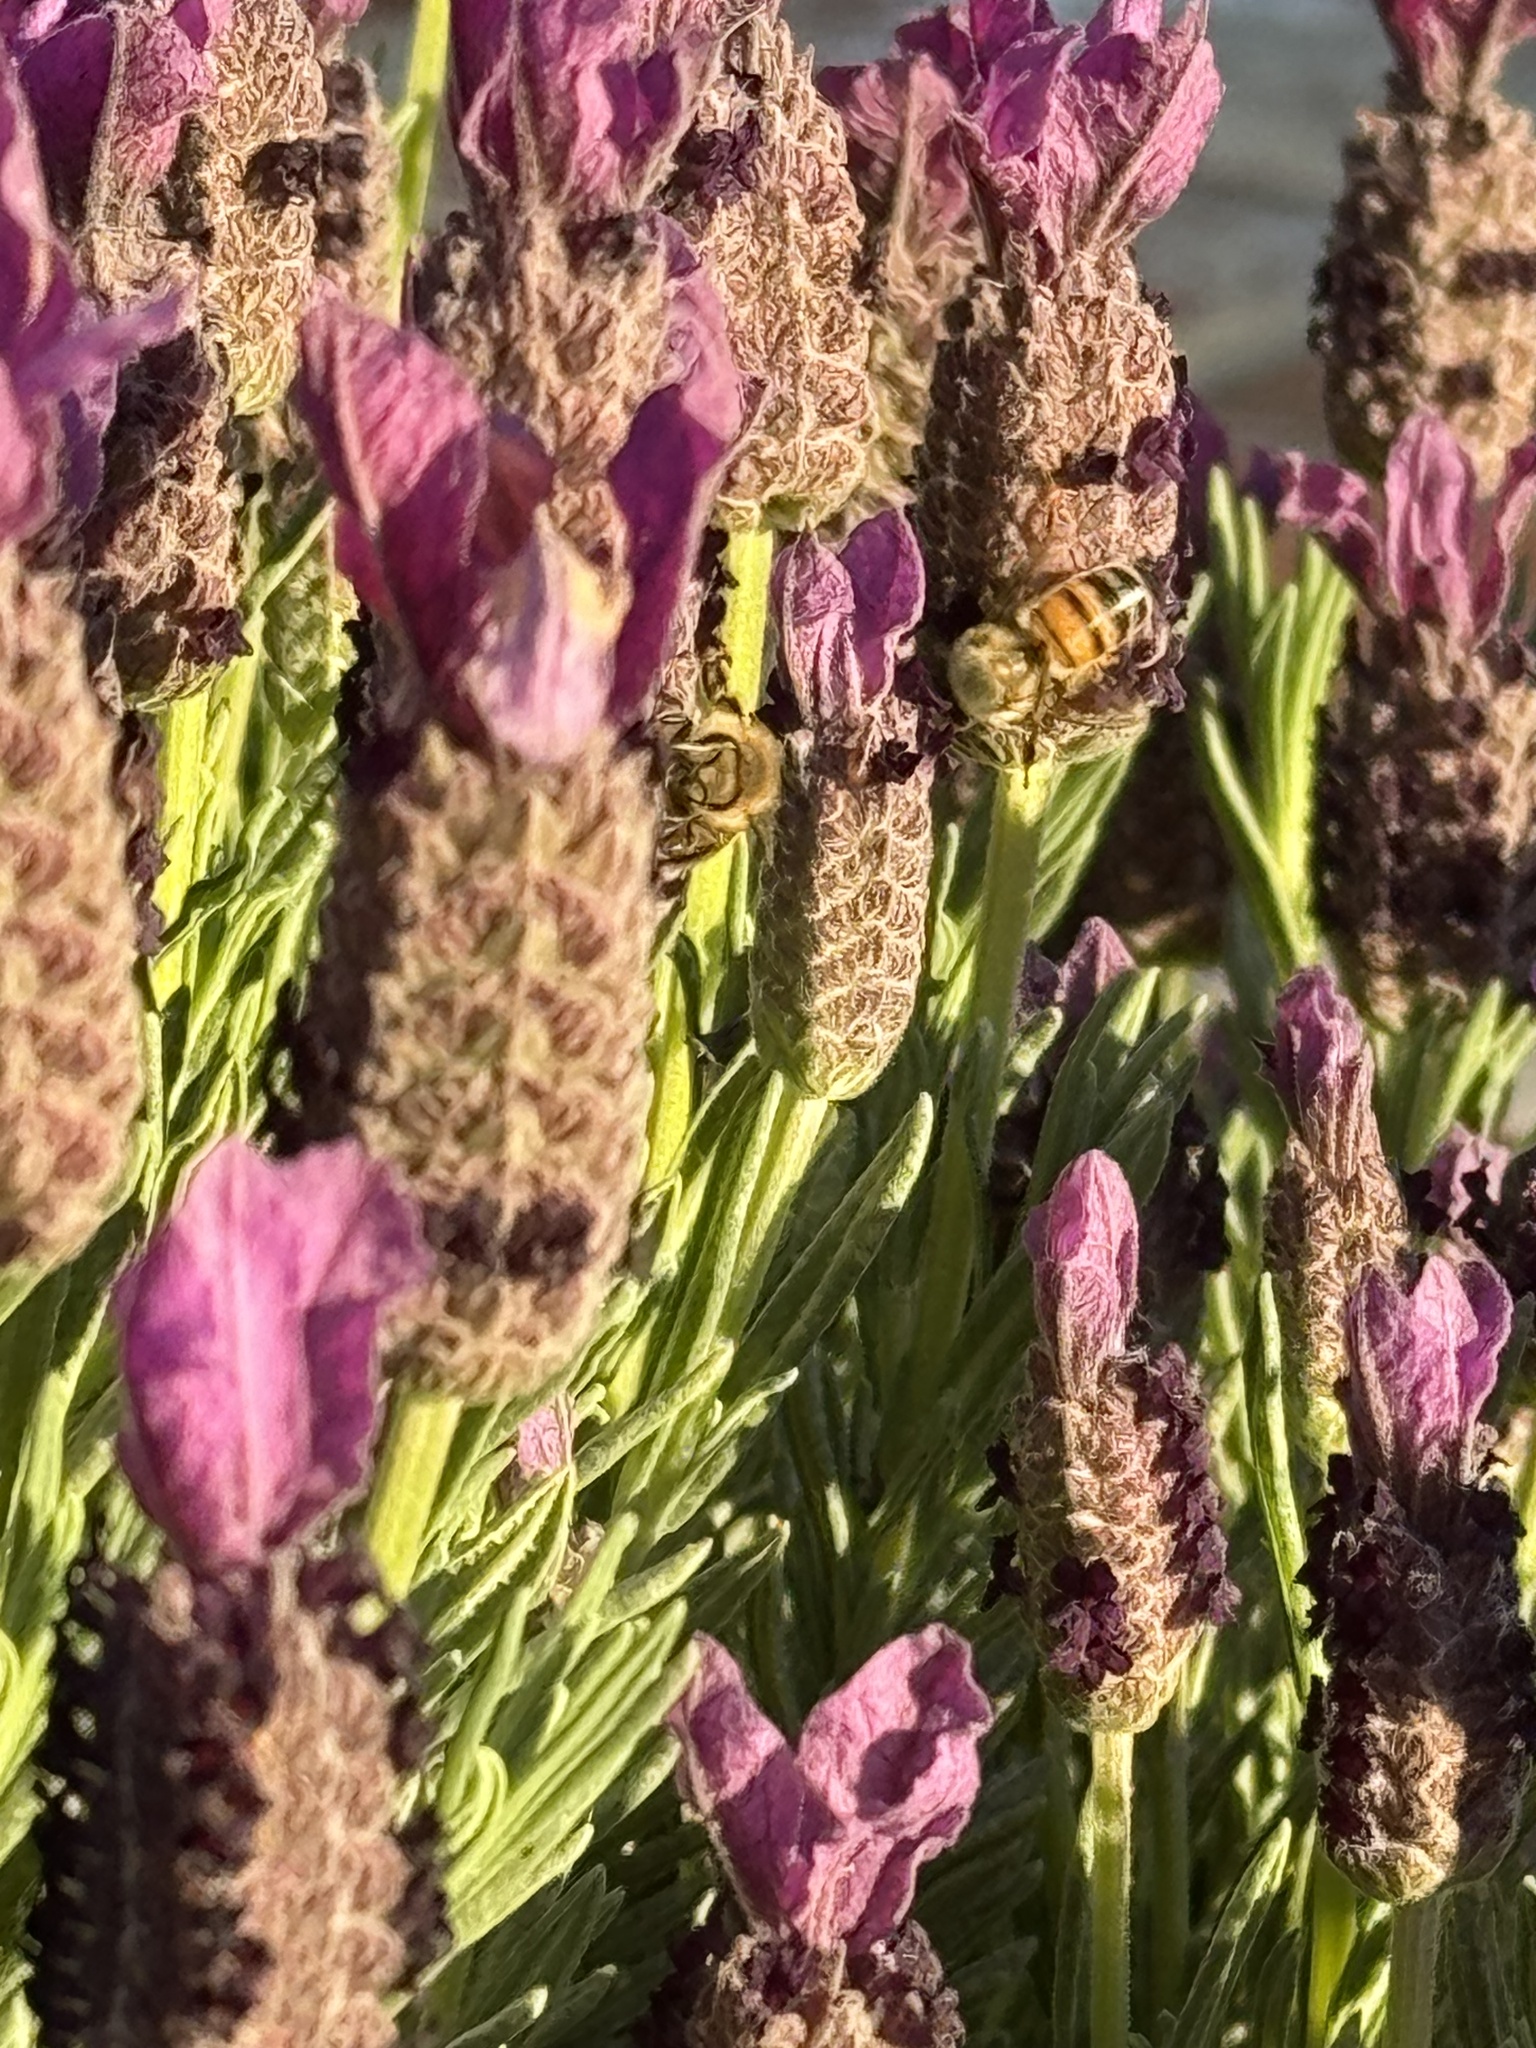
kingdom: Animalia
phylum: Arthropoda
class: Insecta
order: Hymenoptera
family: Apidae
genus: Apis
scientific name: Apis mellifera
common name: Honey bee
